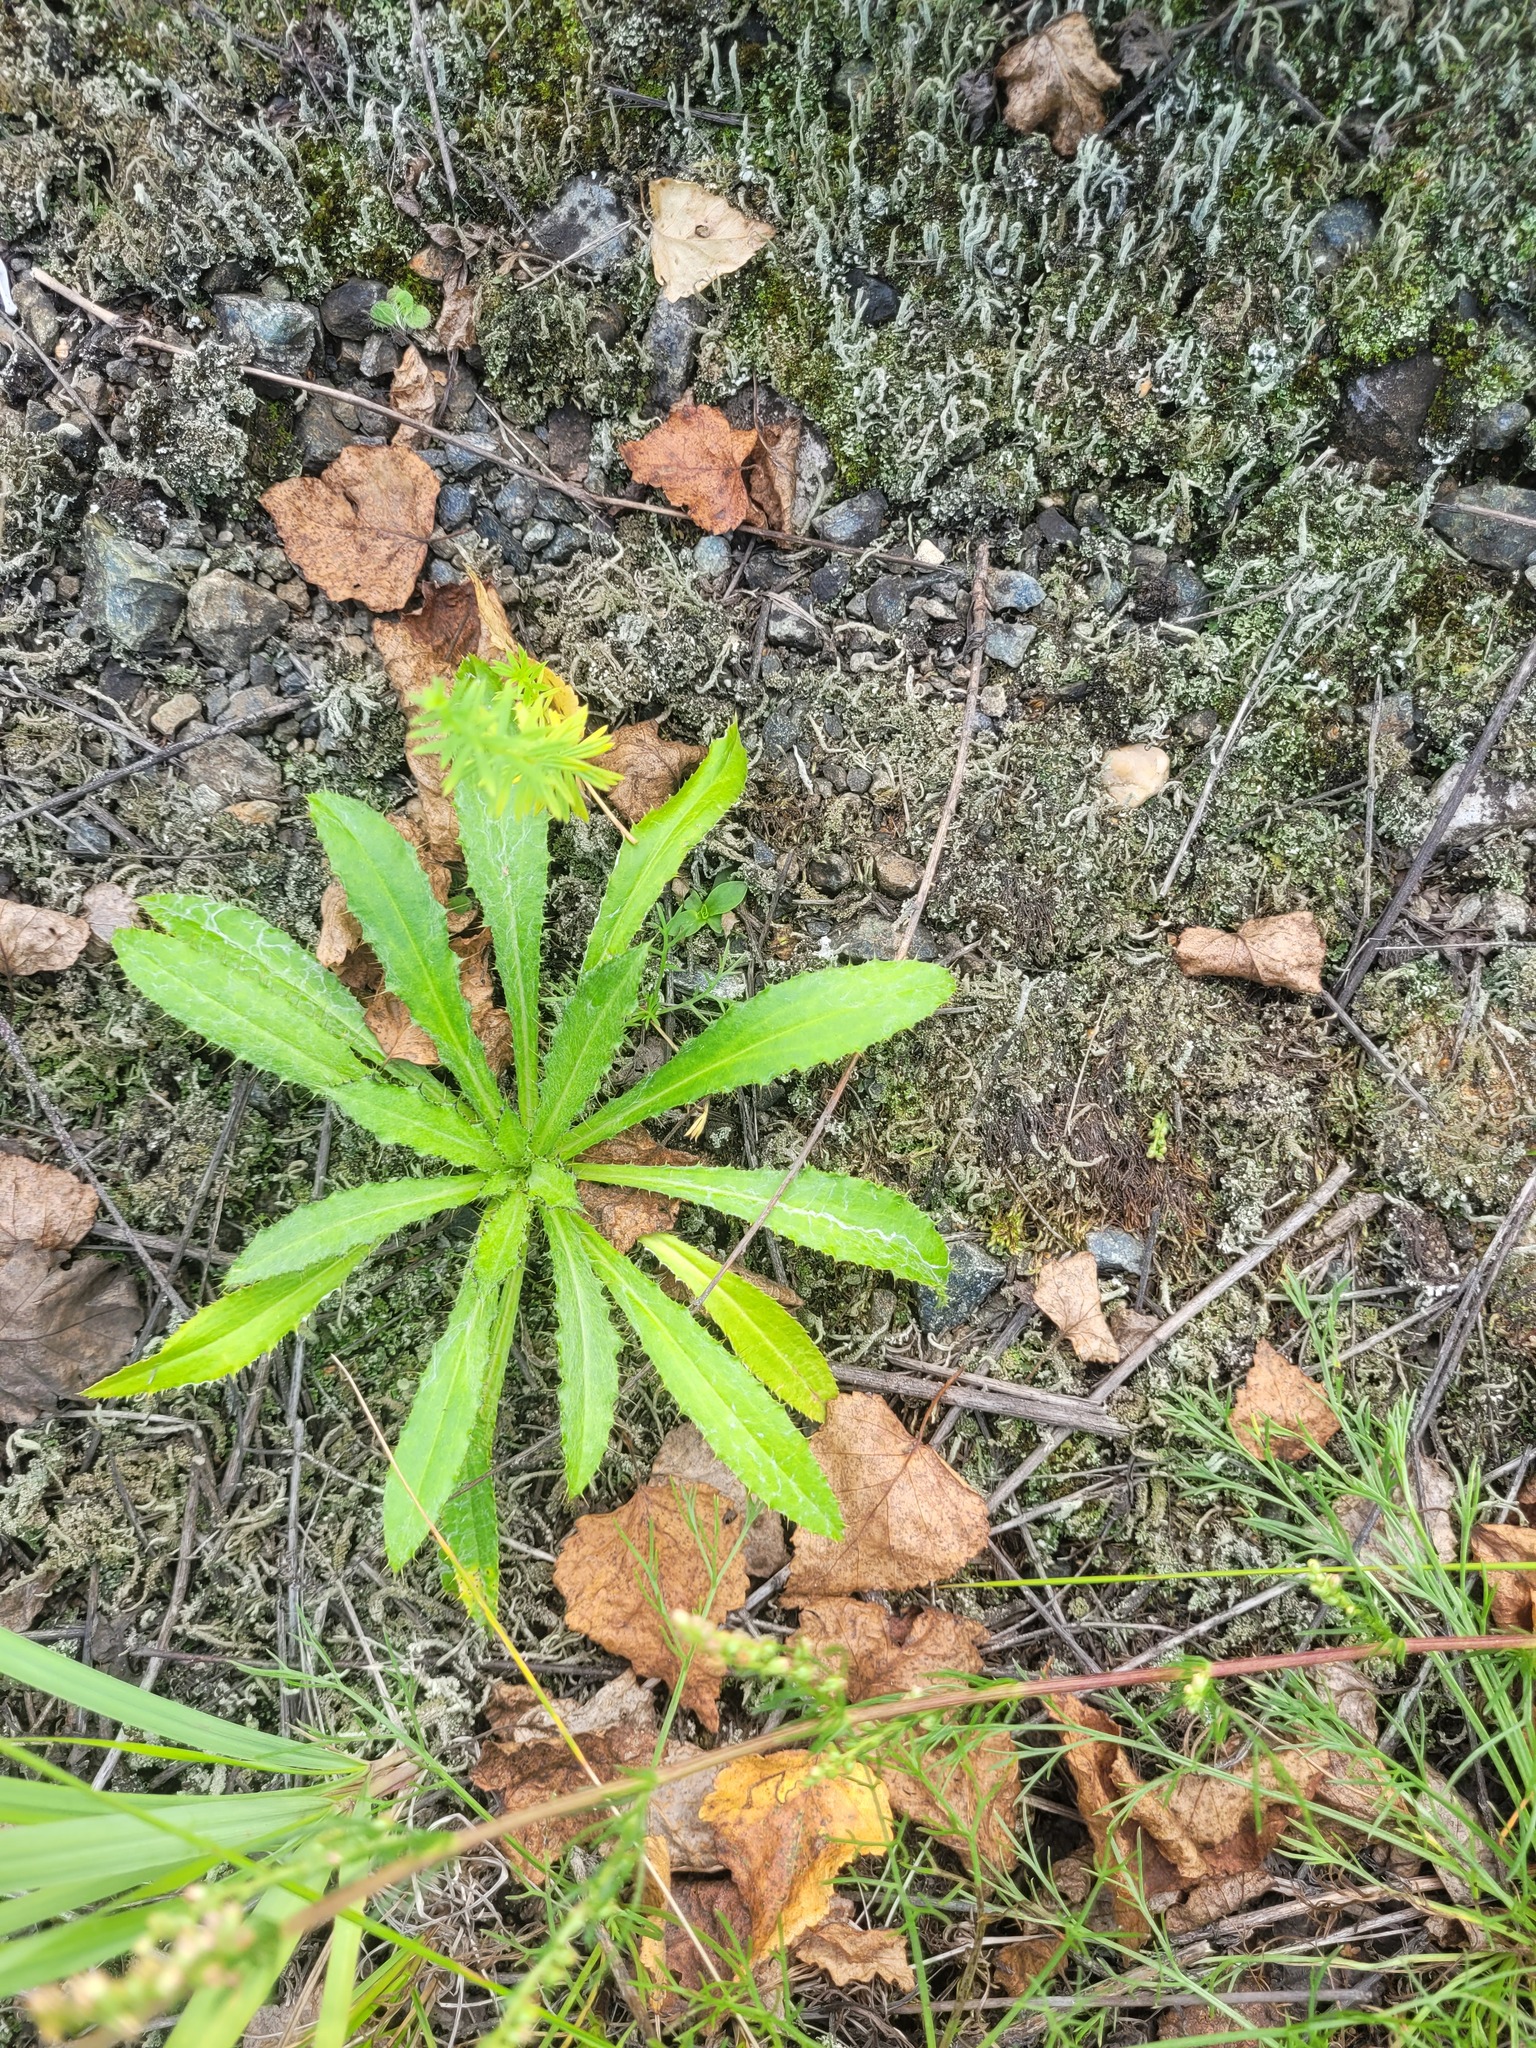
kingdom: Plantae
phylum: Tracheophyta
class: Magnoliopsida
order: Asterales
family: Asteraceae
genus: Carlina
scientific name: Carlina biebersteinii
